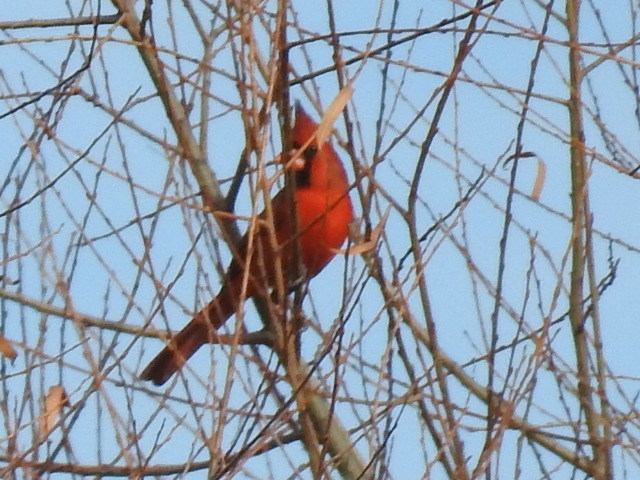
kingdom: Animalia
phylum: Chordata
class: Aves
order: Passeriformes
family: Cardinalidae
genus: Cardinalis
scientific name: Cardinalis cardinalis
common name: Northern cardinal
